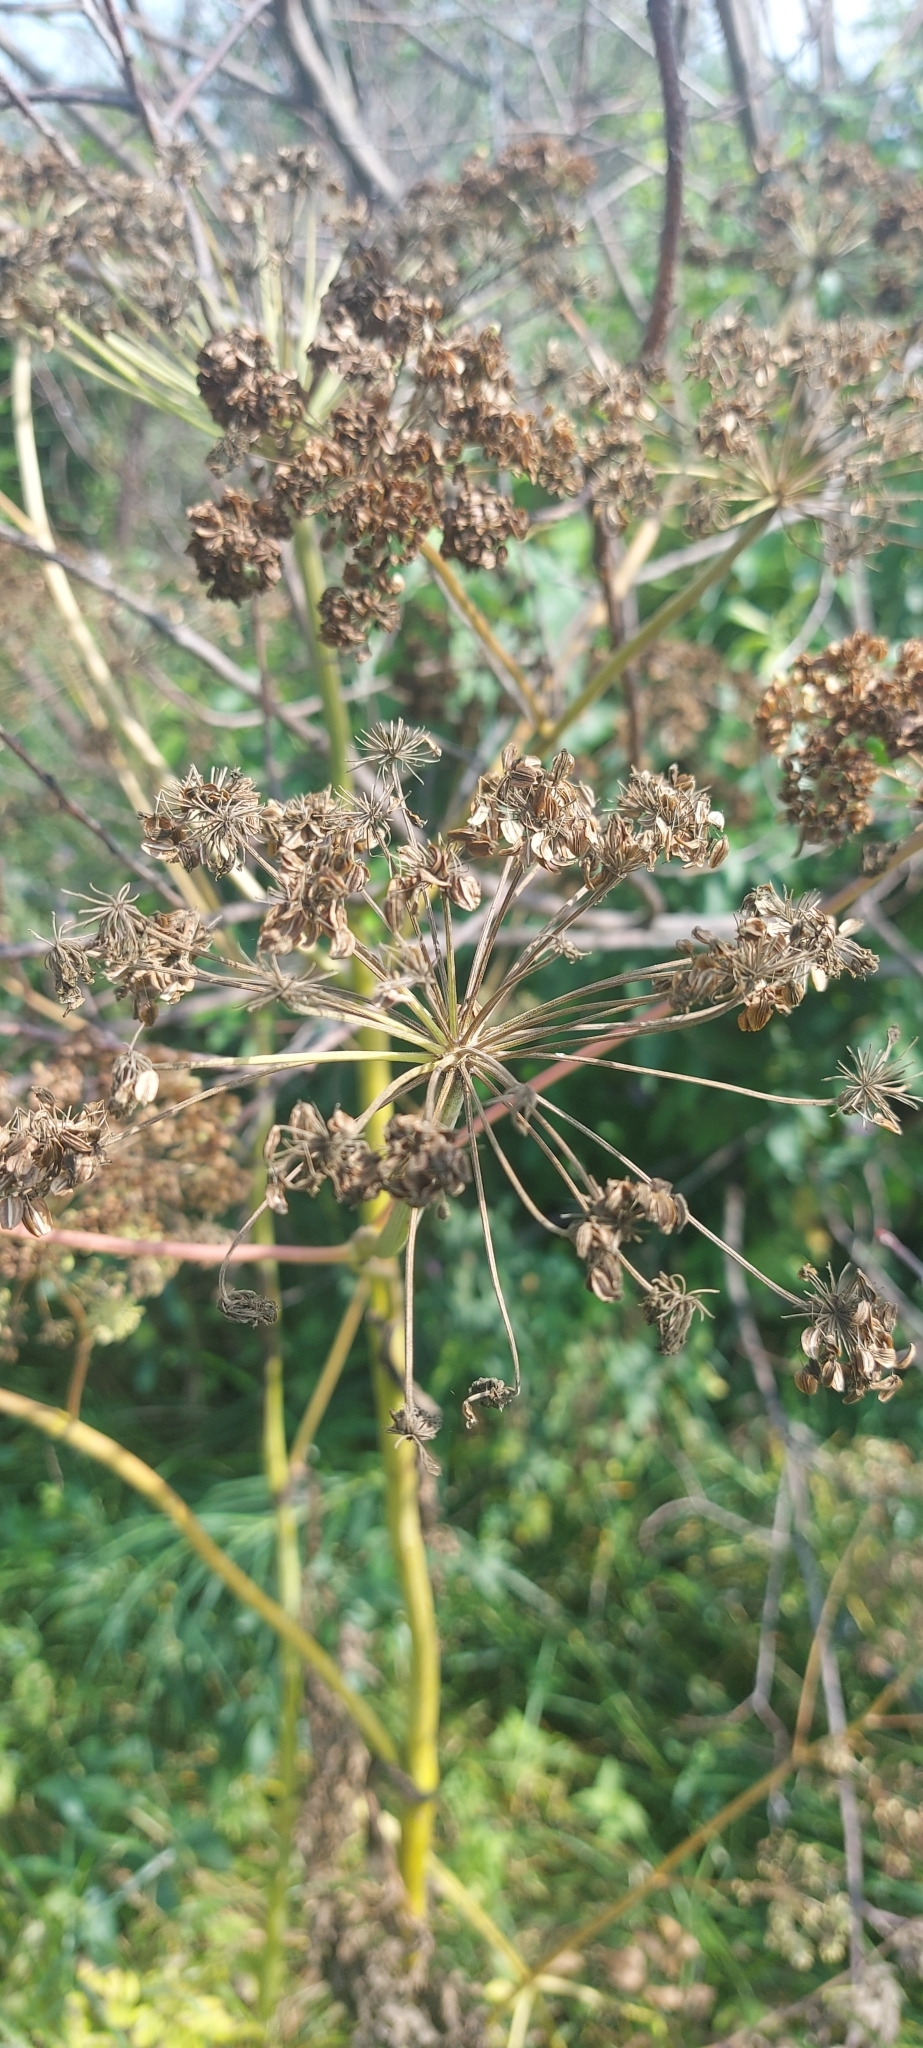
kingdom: Plantae
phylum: Tracheophyta
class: Magnoliopsida
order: Apiales
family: Apiaceae
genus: Angelica
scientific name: Angelica sylvestris
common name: Wild angelica
